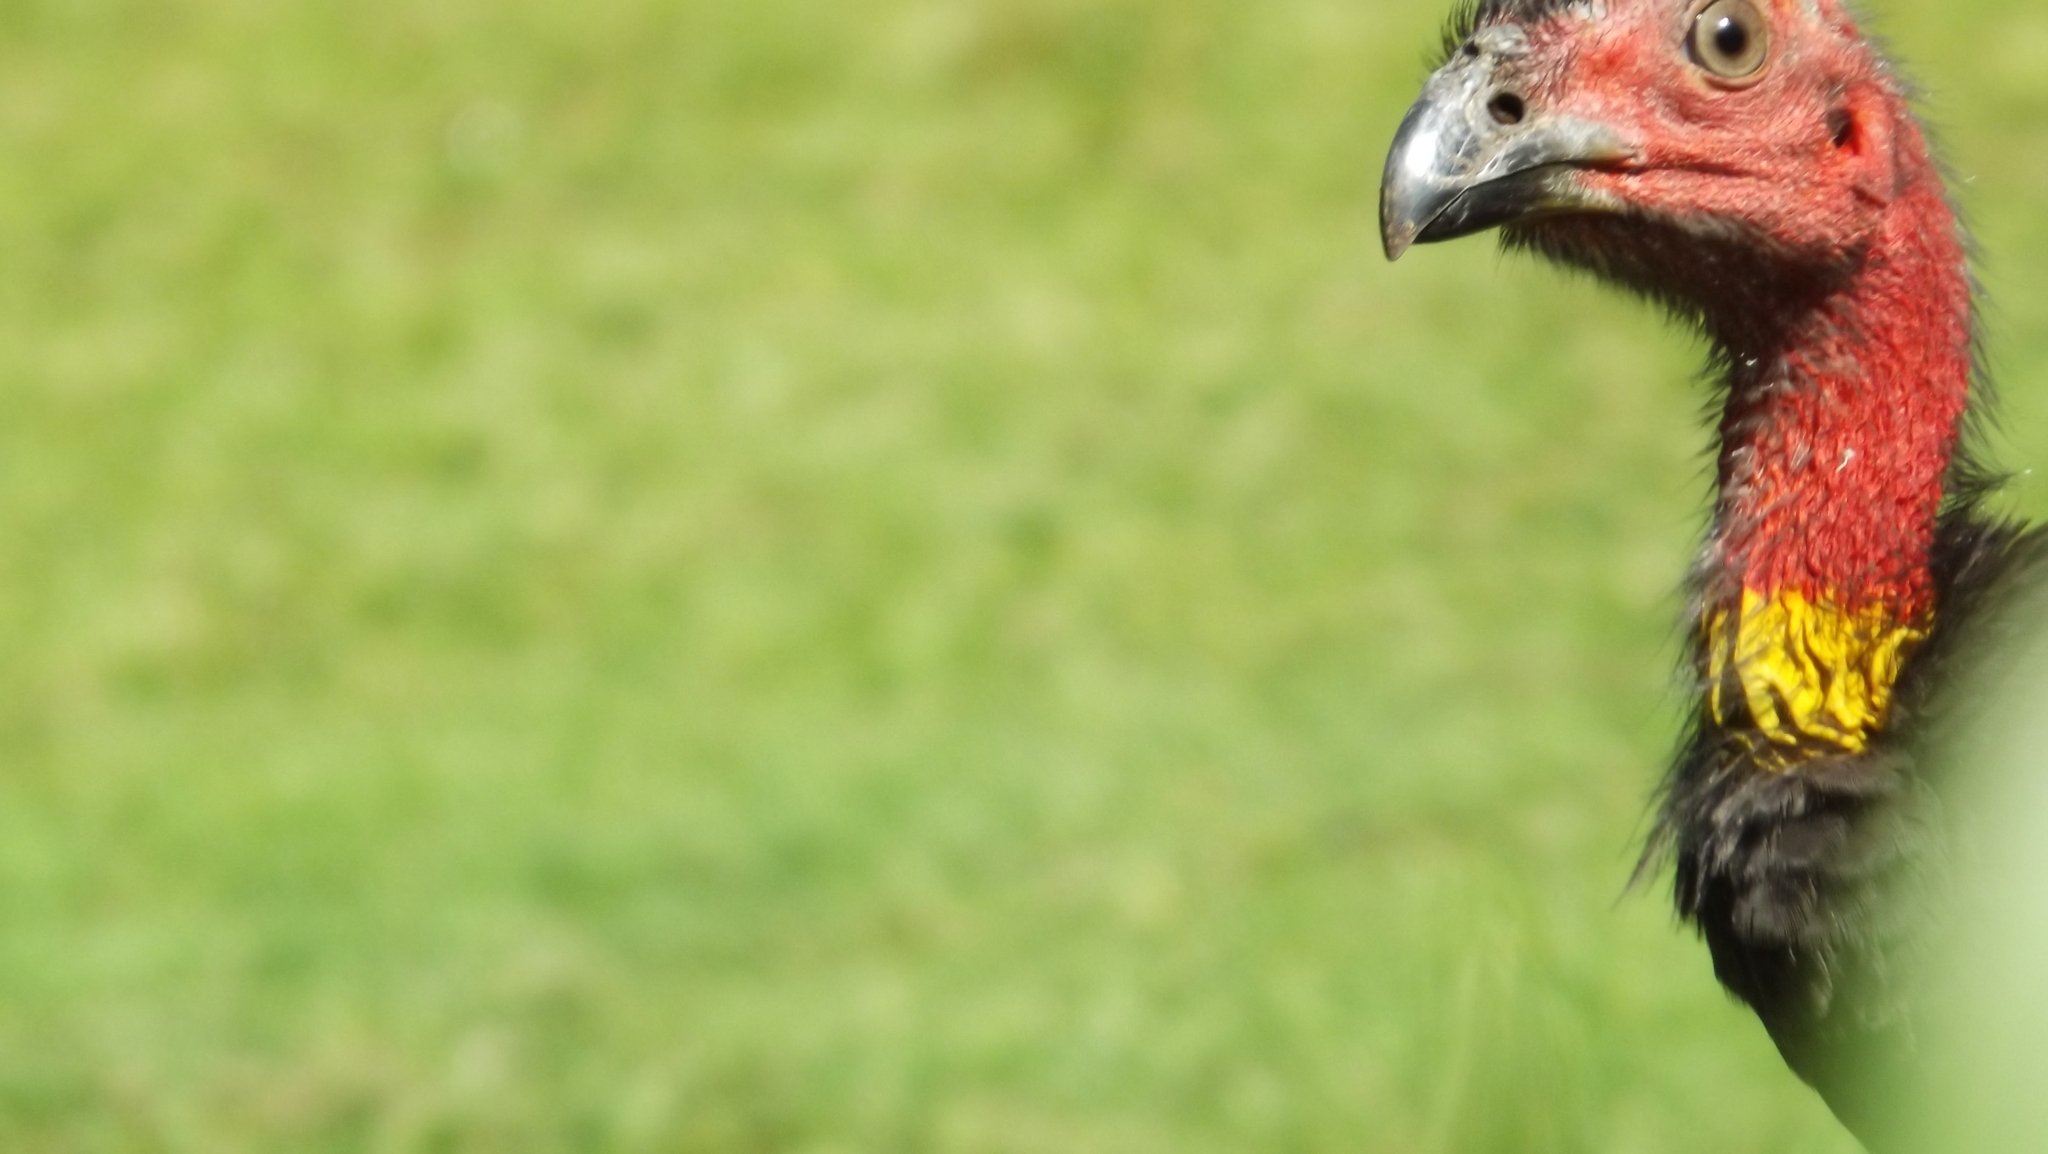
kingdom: Animalia
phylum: Chordata
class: Aves
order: Galliformes
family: Megapodiidae
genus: Alectura
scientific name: Alectura lathami
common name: Australian brushturkey
